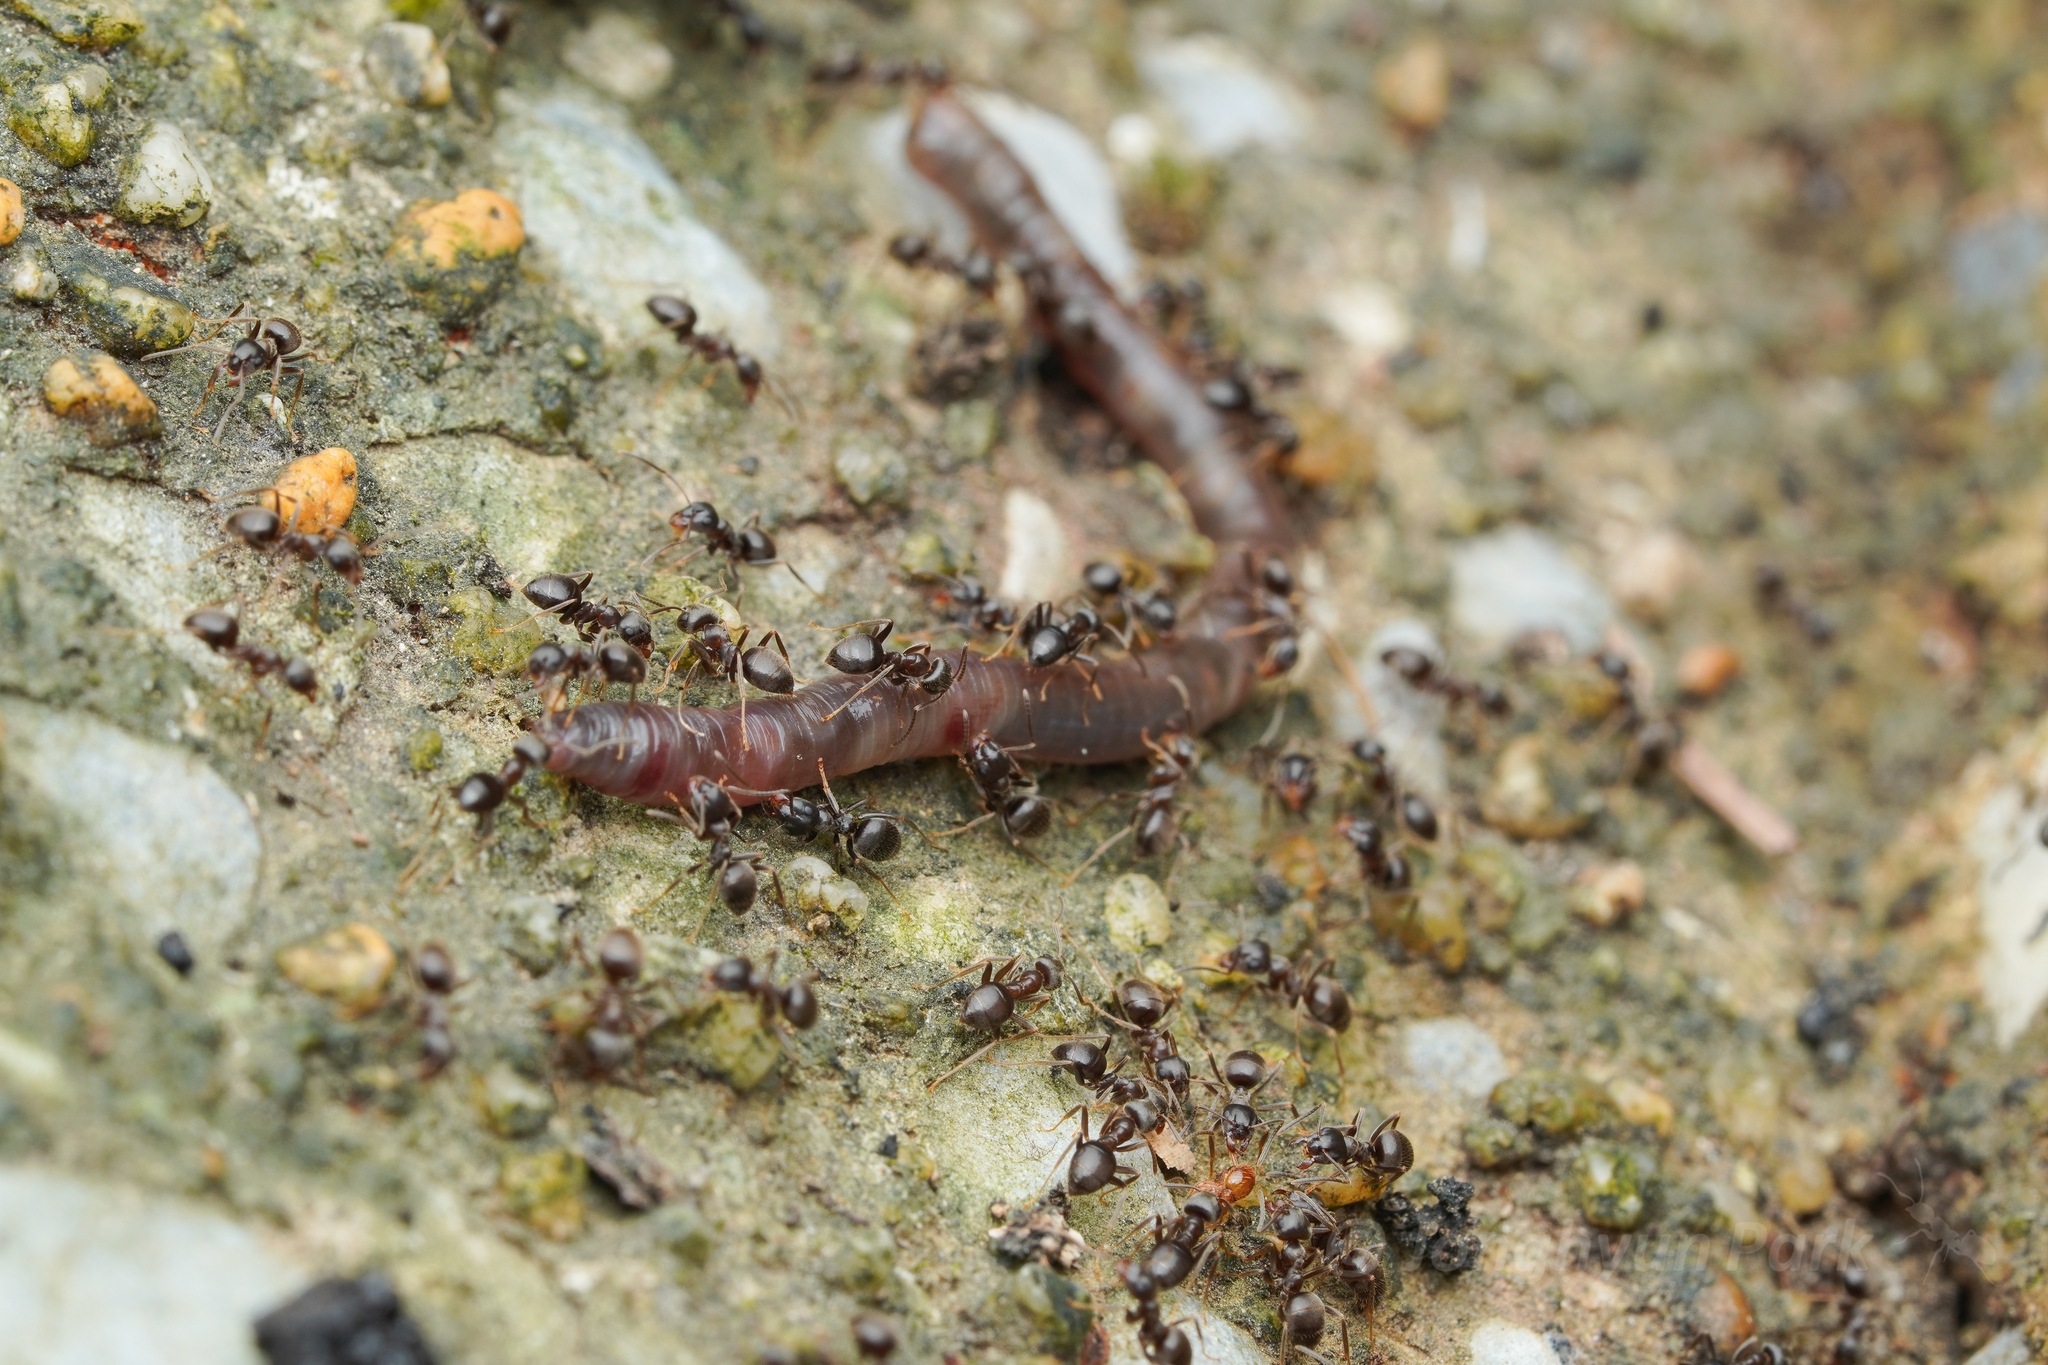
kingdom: Animalia
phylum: Arthropoda
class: Insecta
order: Hymenoptera
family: Formicidae
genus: Lasius
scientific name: Lasius japonicus
